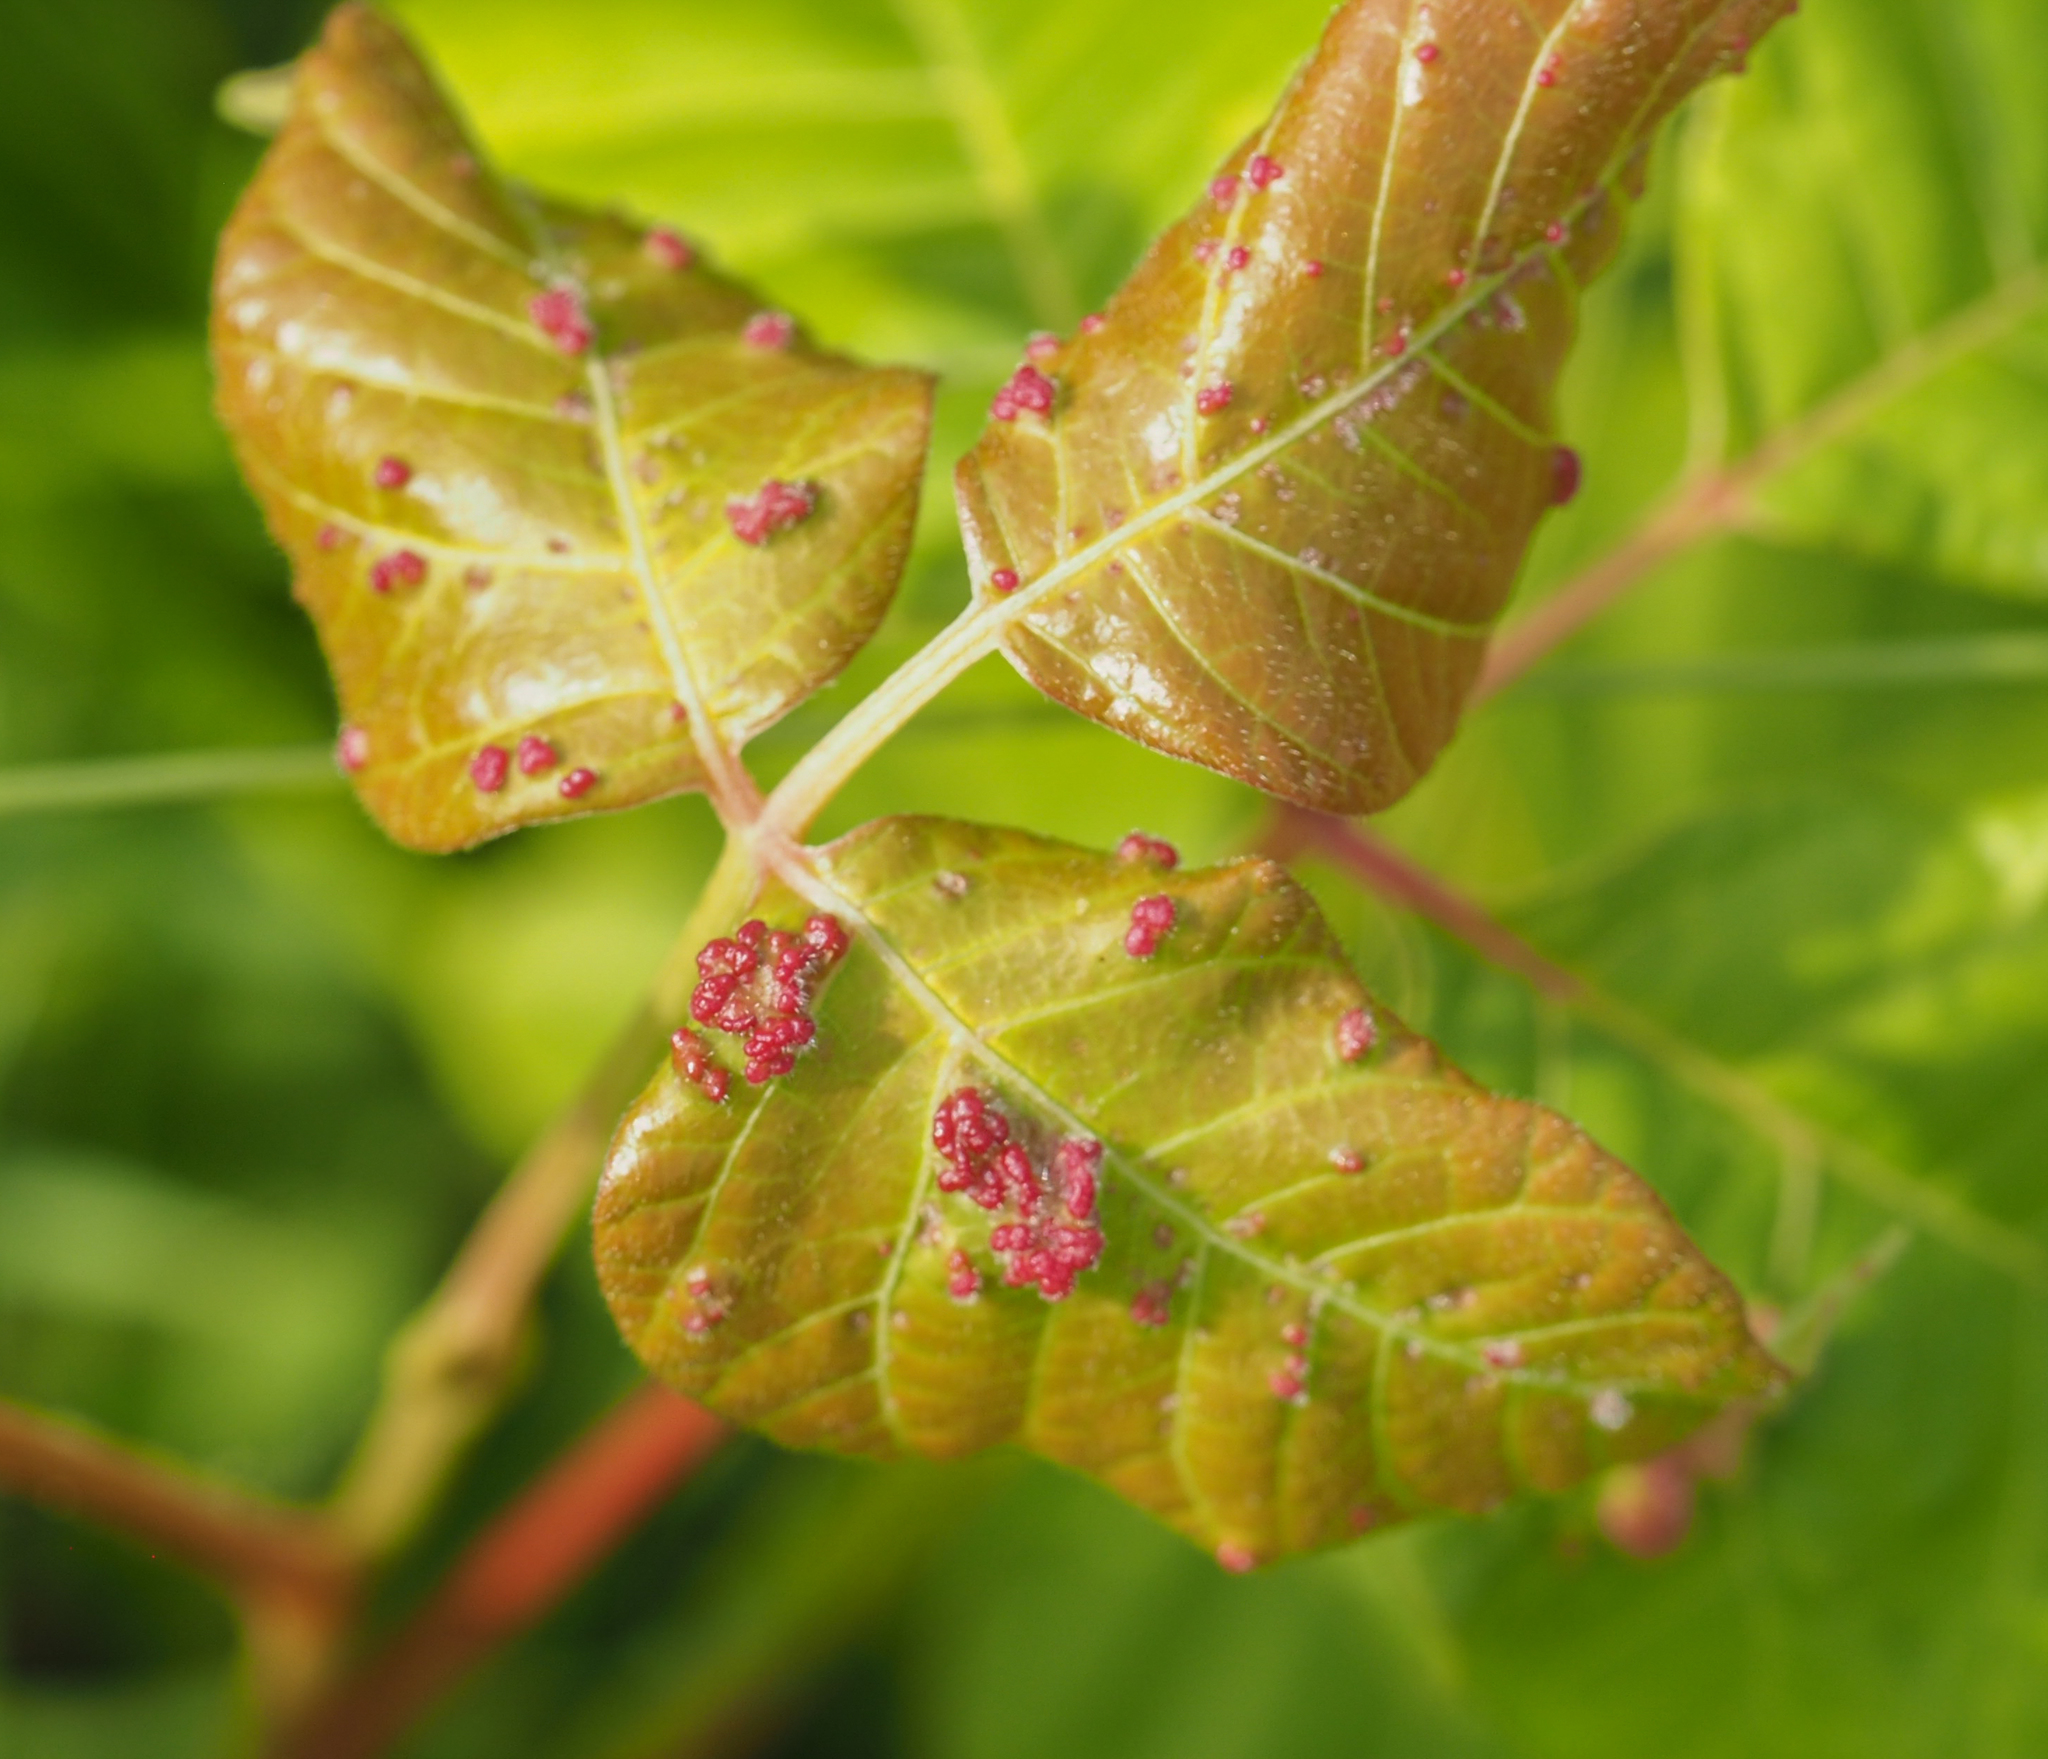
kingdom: Animalia
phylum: Arthropoda
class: Arachnida
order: Trombidiformes
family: Eriophyidae
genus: Aculops
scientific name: Aculops
